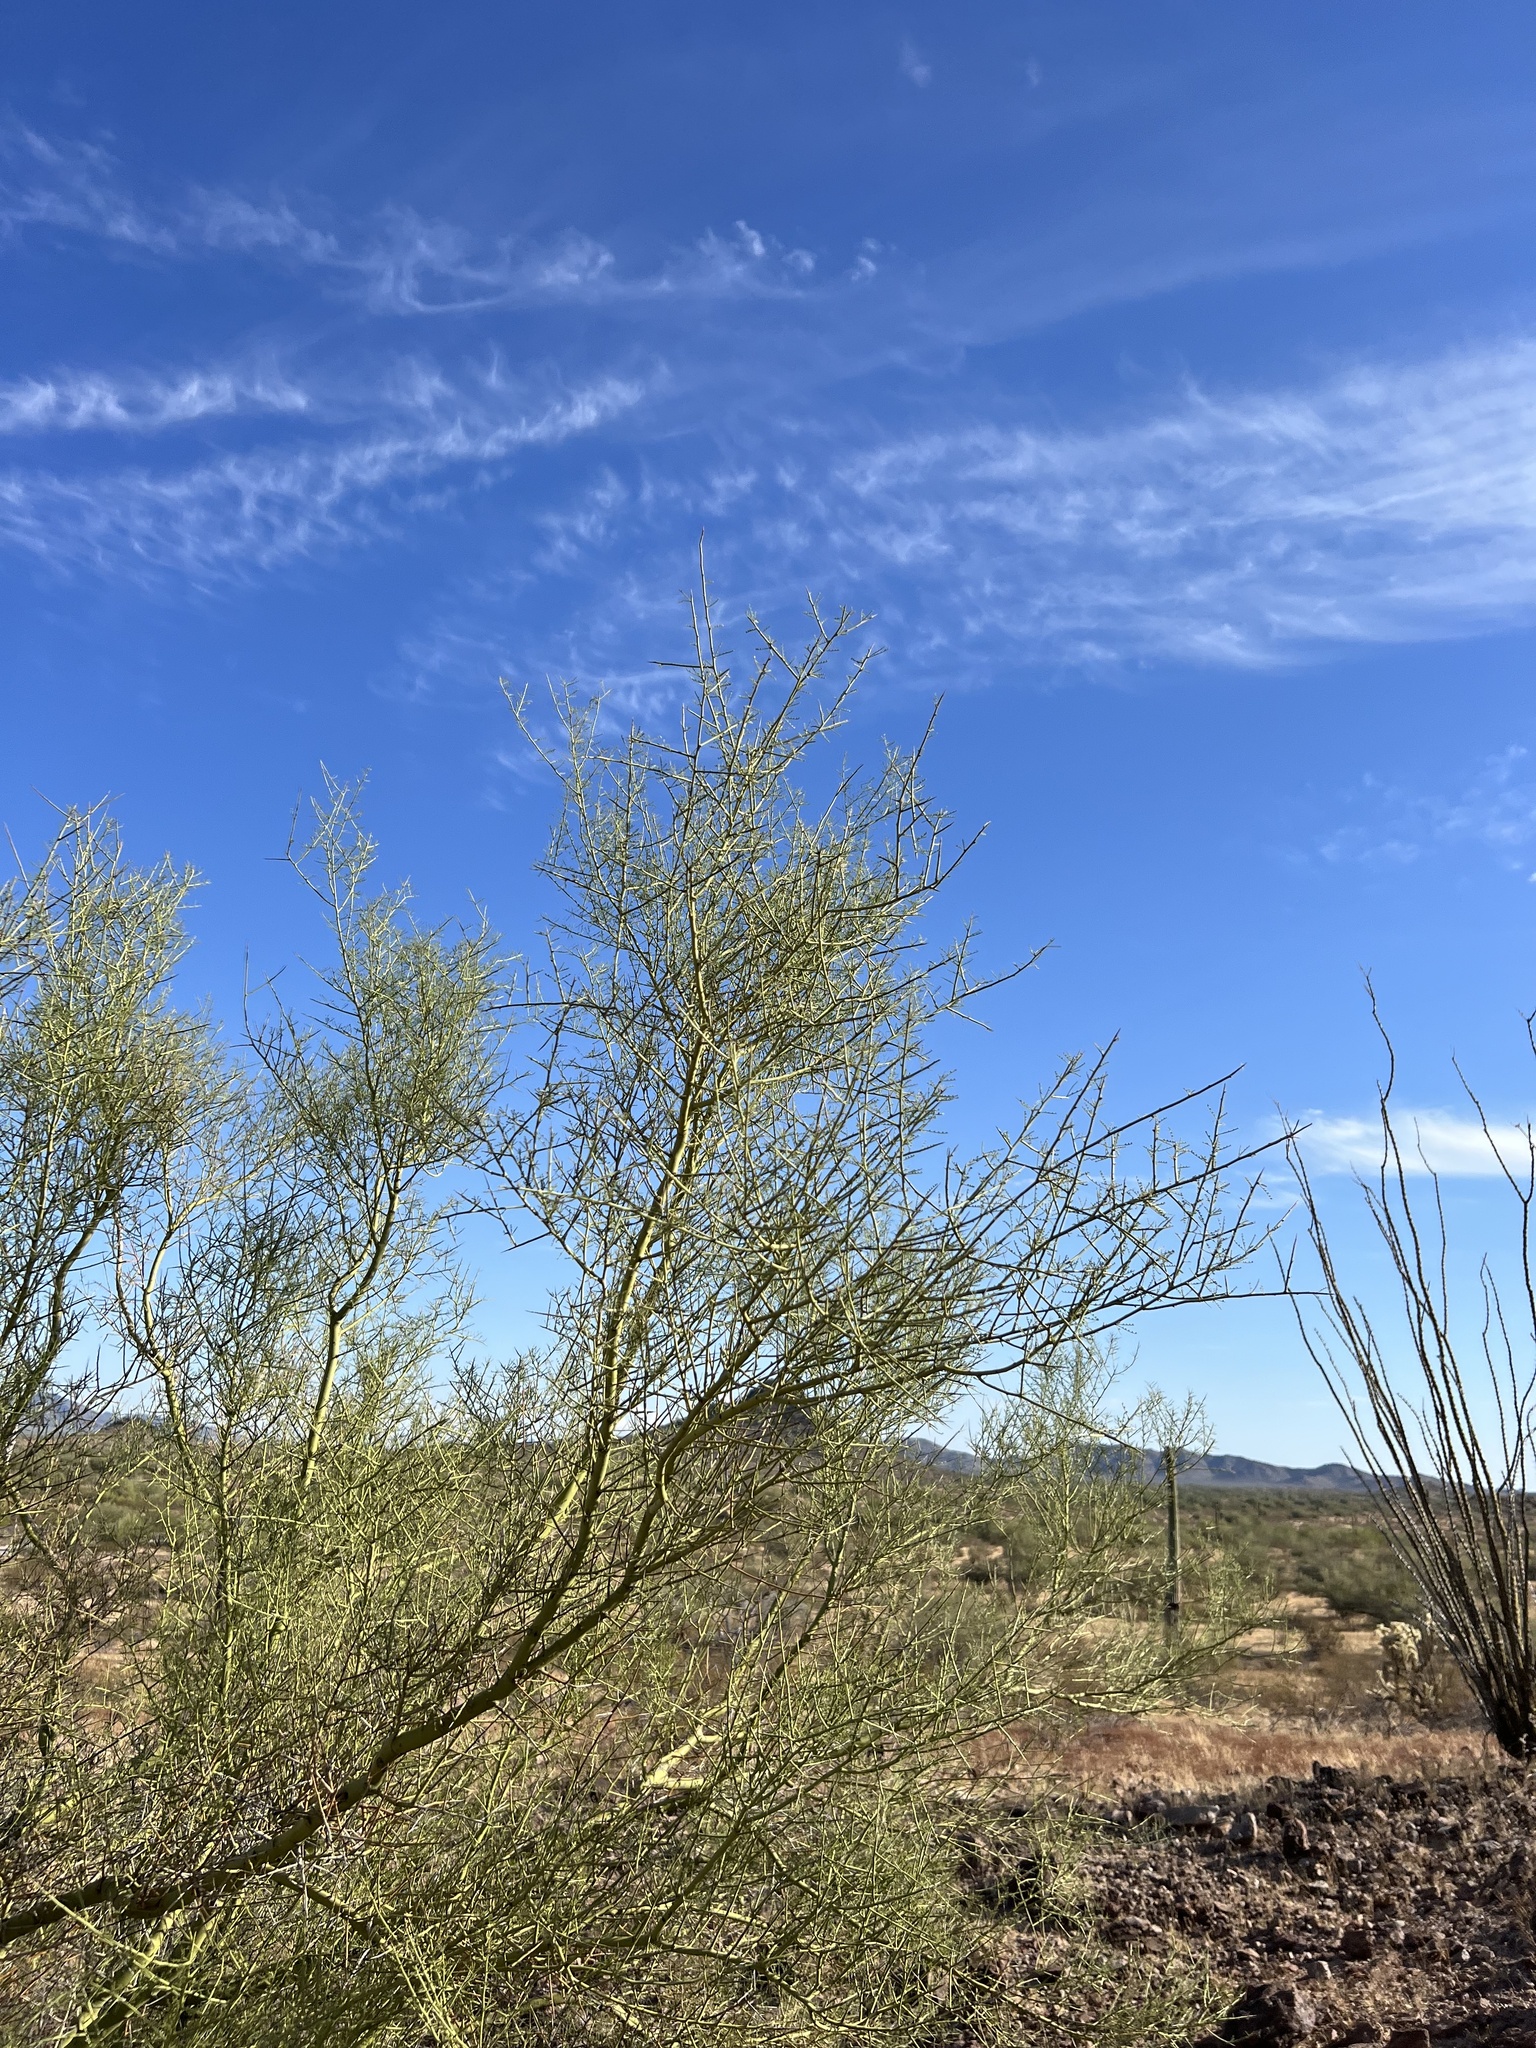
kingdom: Plantae
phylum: Tracheophyta
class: Magnoliopsida
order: Fabales
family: Fabaceae
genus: Parkinsonia
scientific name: Parkinsonia microphylla
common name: Yellow paloverde
